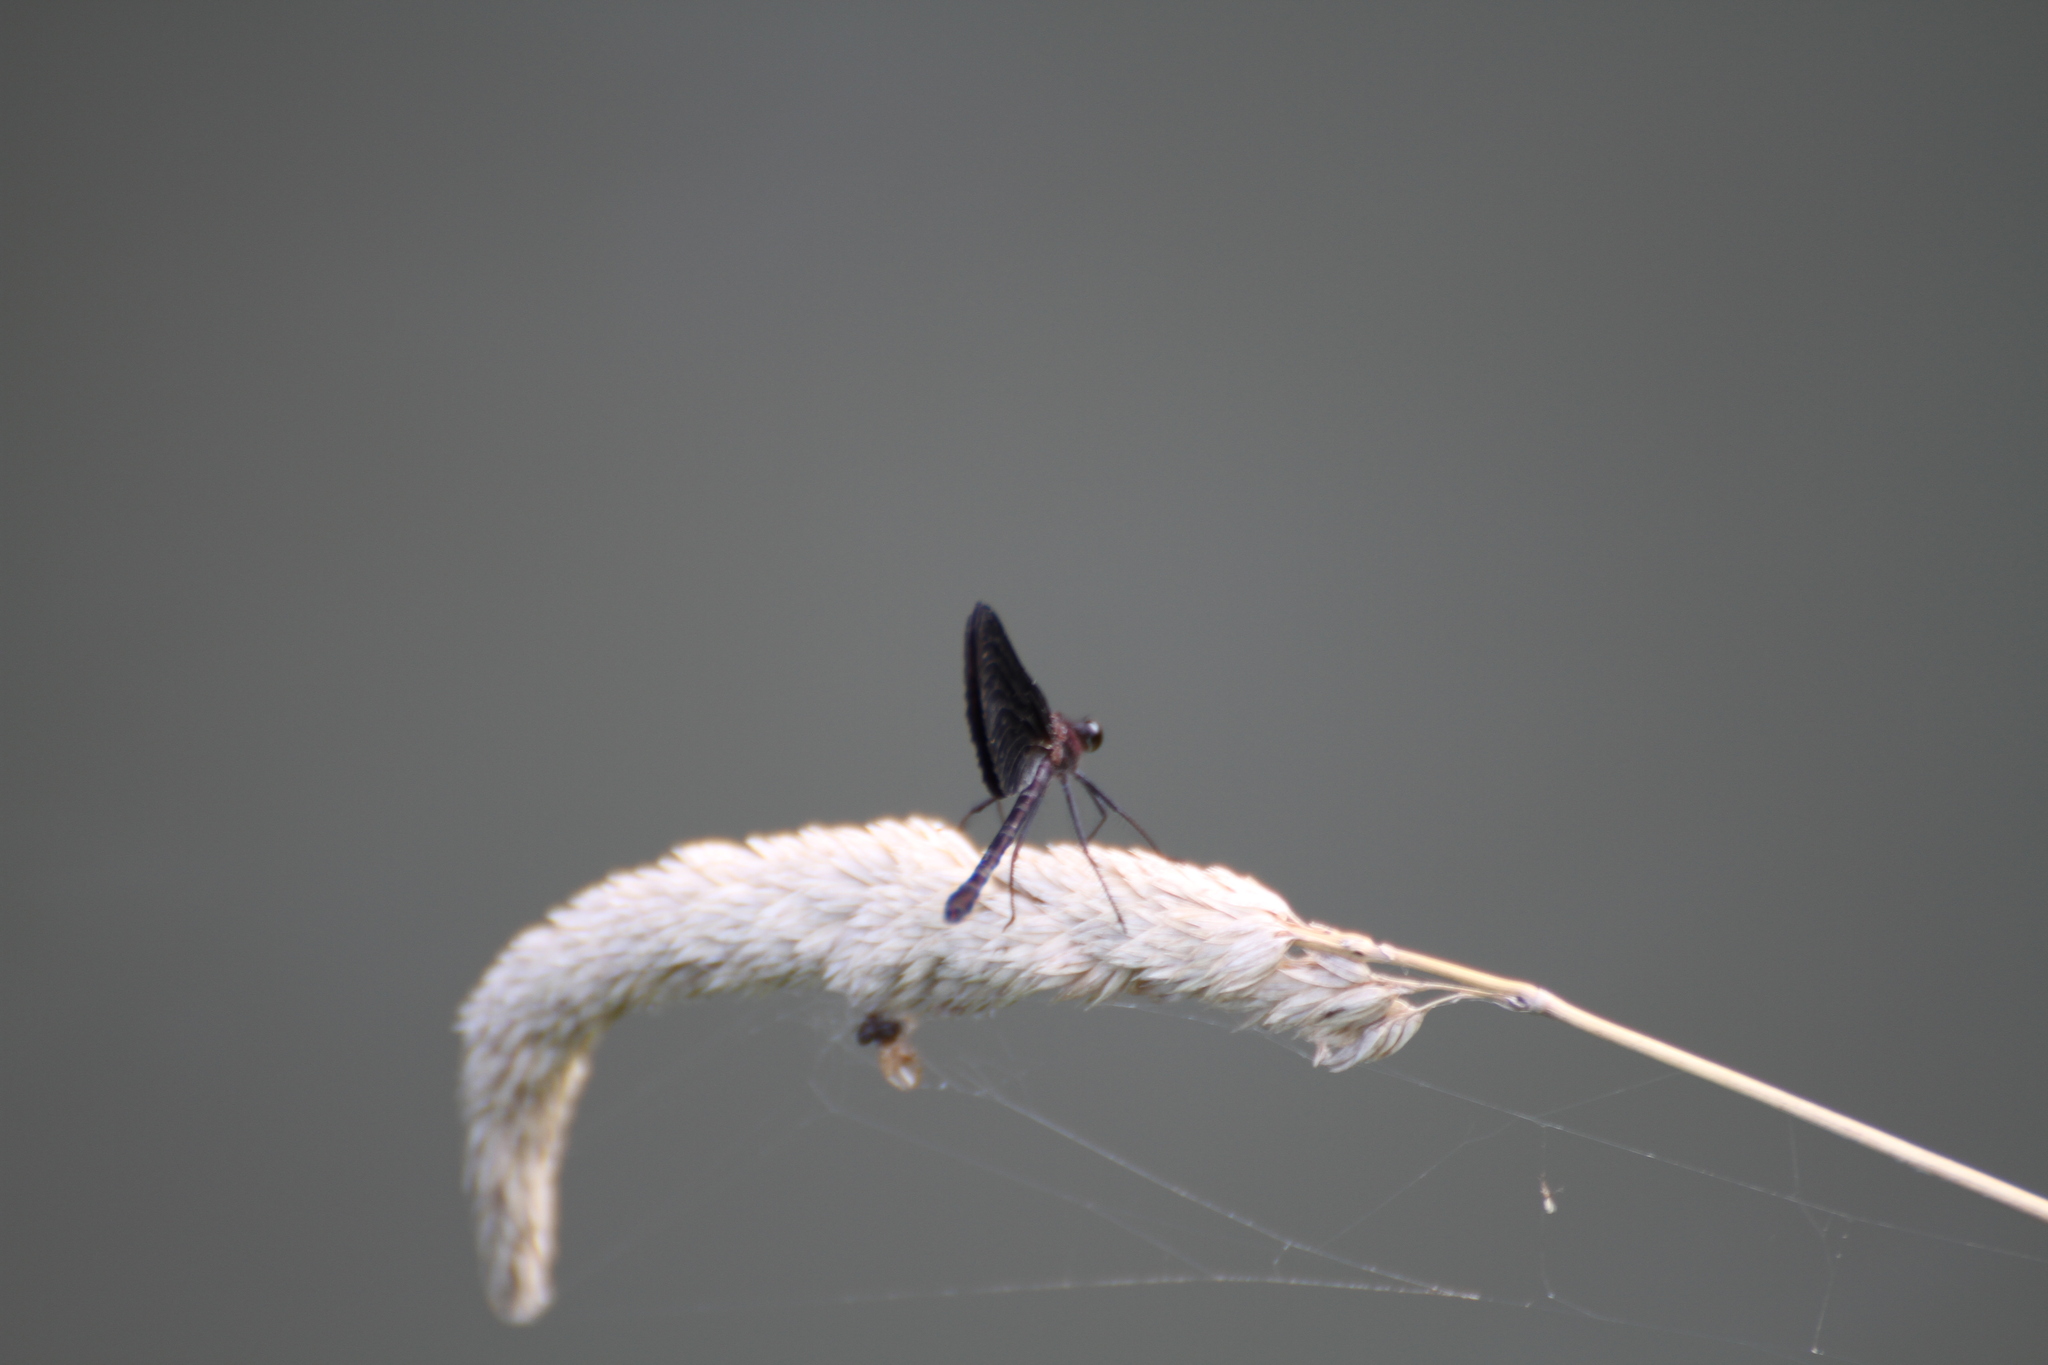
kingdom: Animalia
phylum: Arthropoda
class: Insecta
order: Odonata
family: Calopterygidae
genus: Calopteryx
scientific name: Calopteryx haemorrhoidalis
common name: Copper demoiselle
